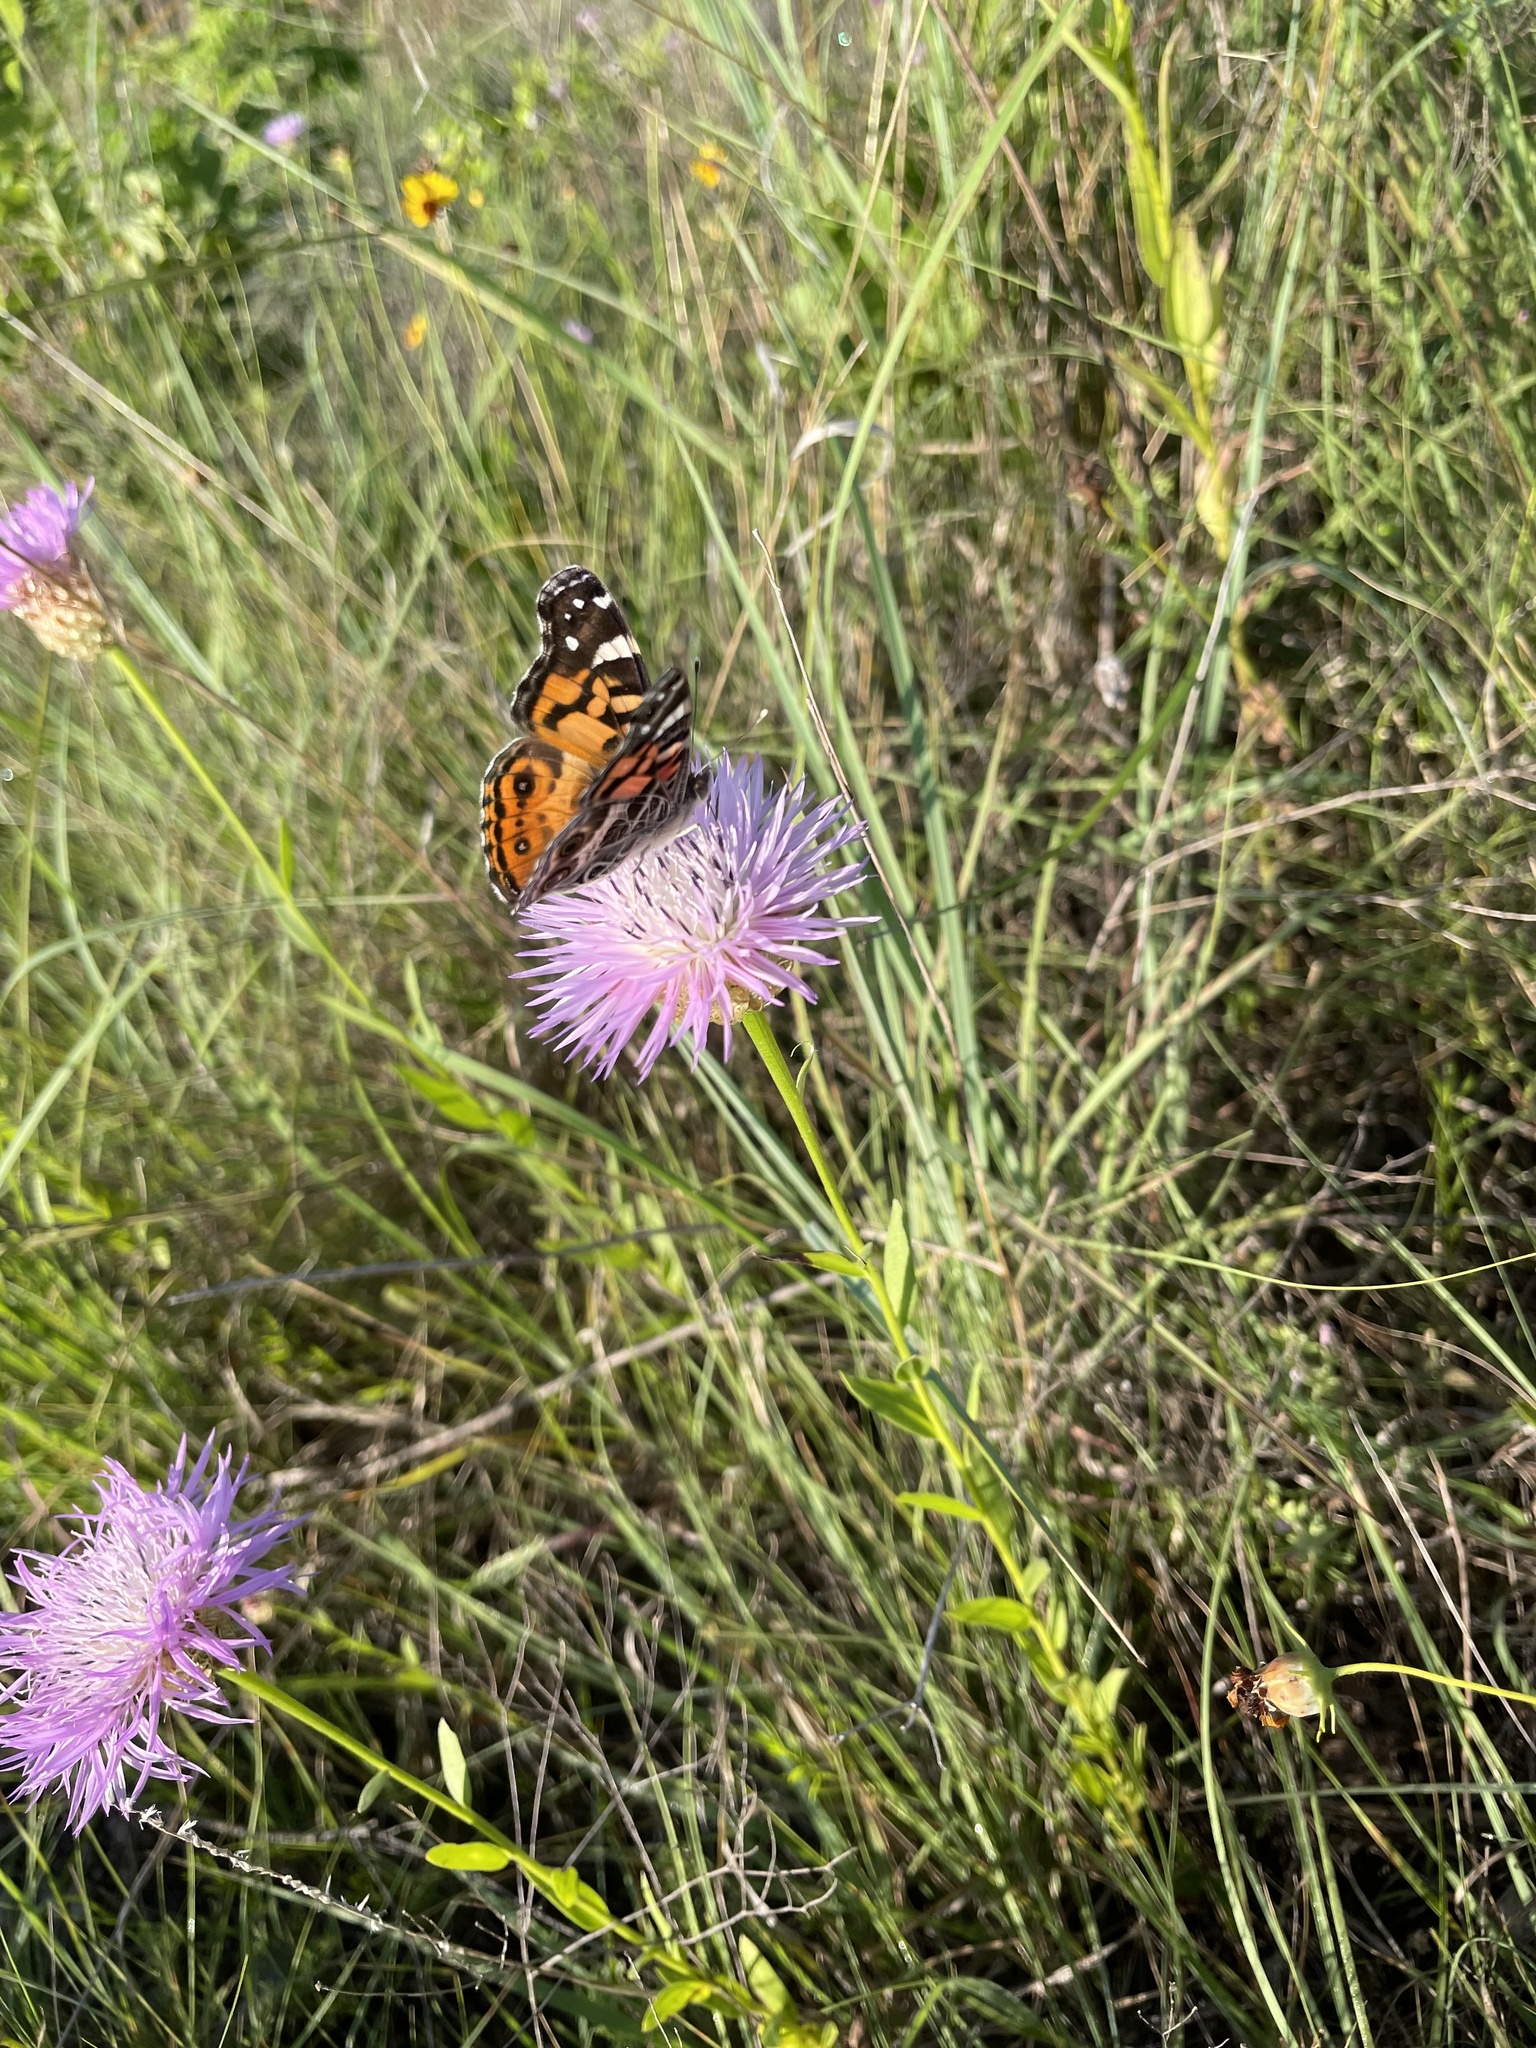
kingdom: Animalia
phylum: Arthropoda
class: Insecta
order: Lepidoptera
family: Nymphalidae
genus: Vanessa
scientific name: Vanessa virginiensis
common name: American lady
